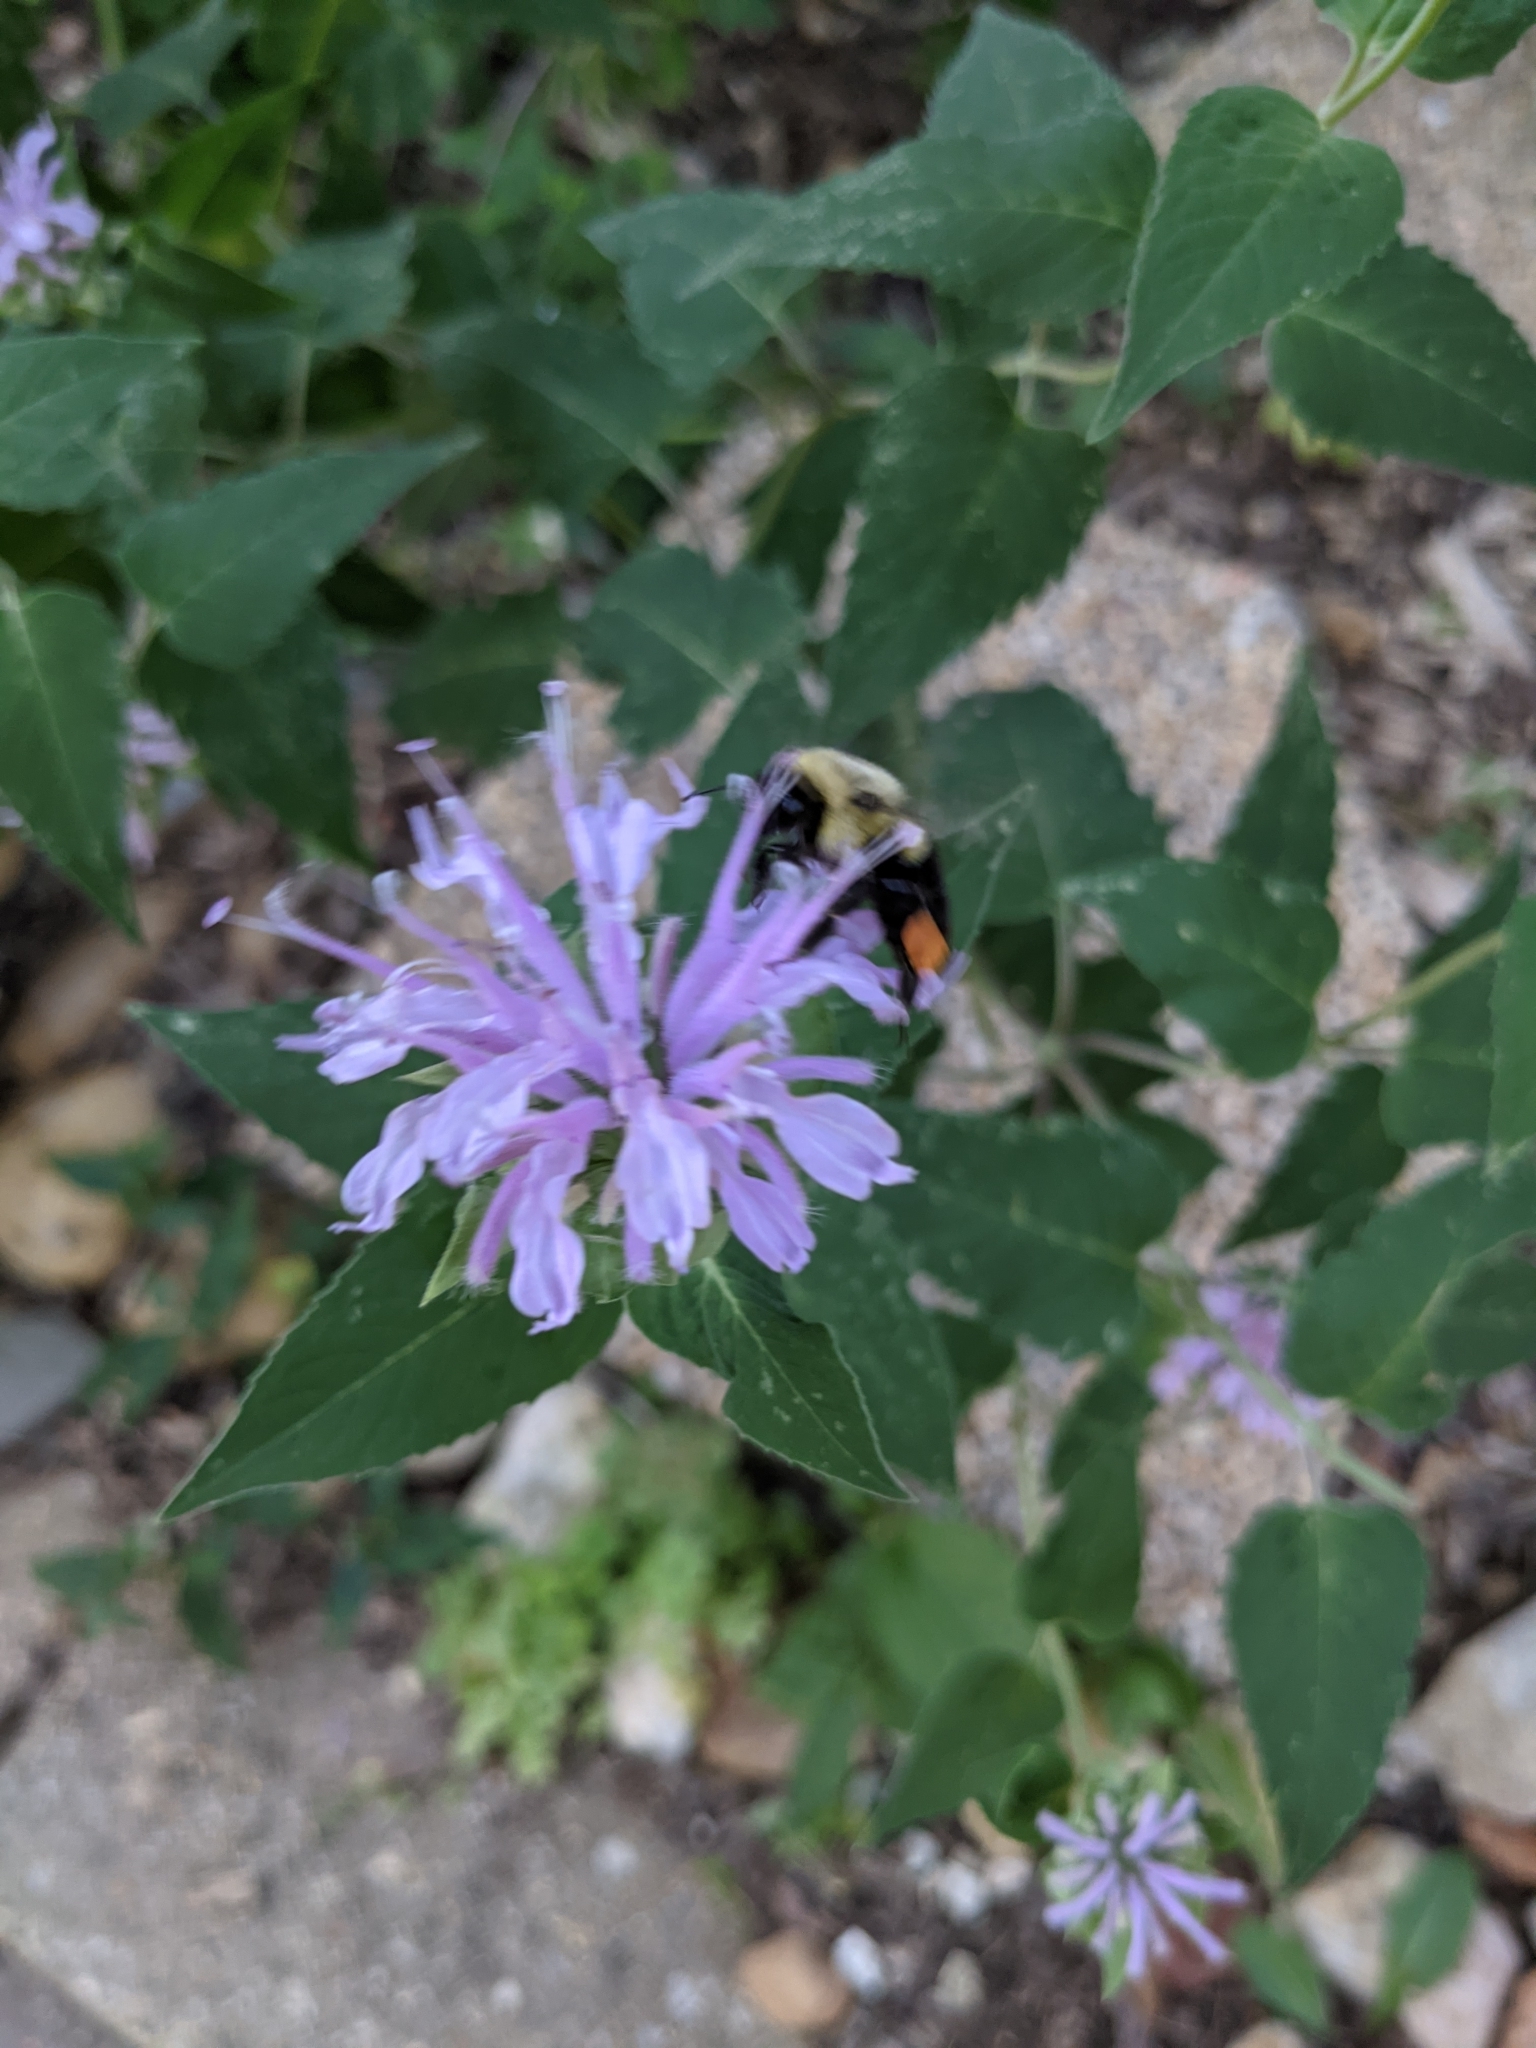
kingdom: Animalia
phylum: Arthropoda
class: Insecta
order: Hymenoptera
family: Apidae
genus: Bombus
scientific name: Bombus impatiens
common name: Common eastern bumble bee
